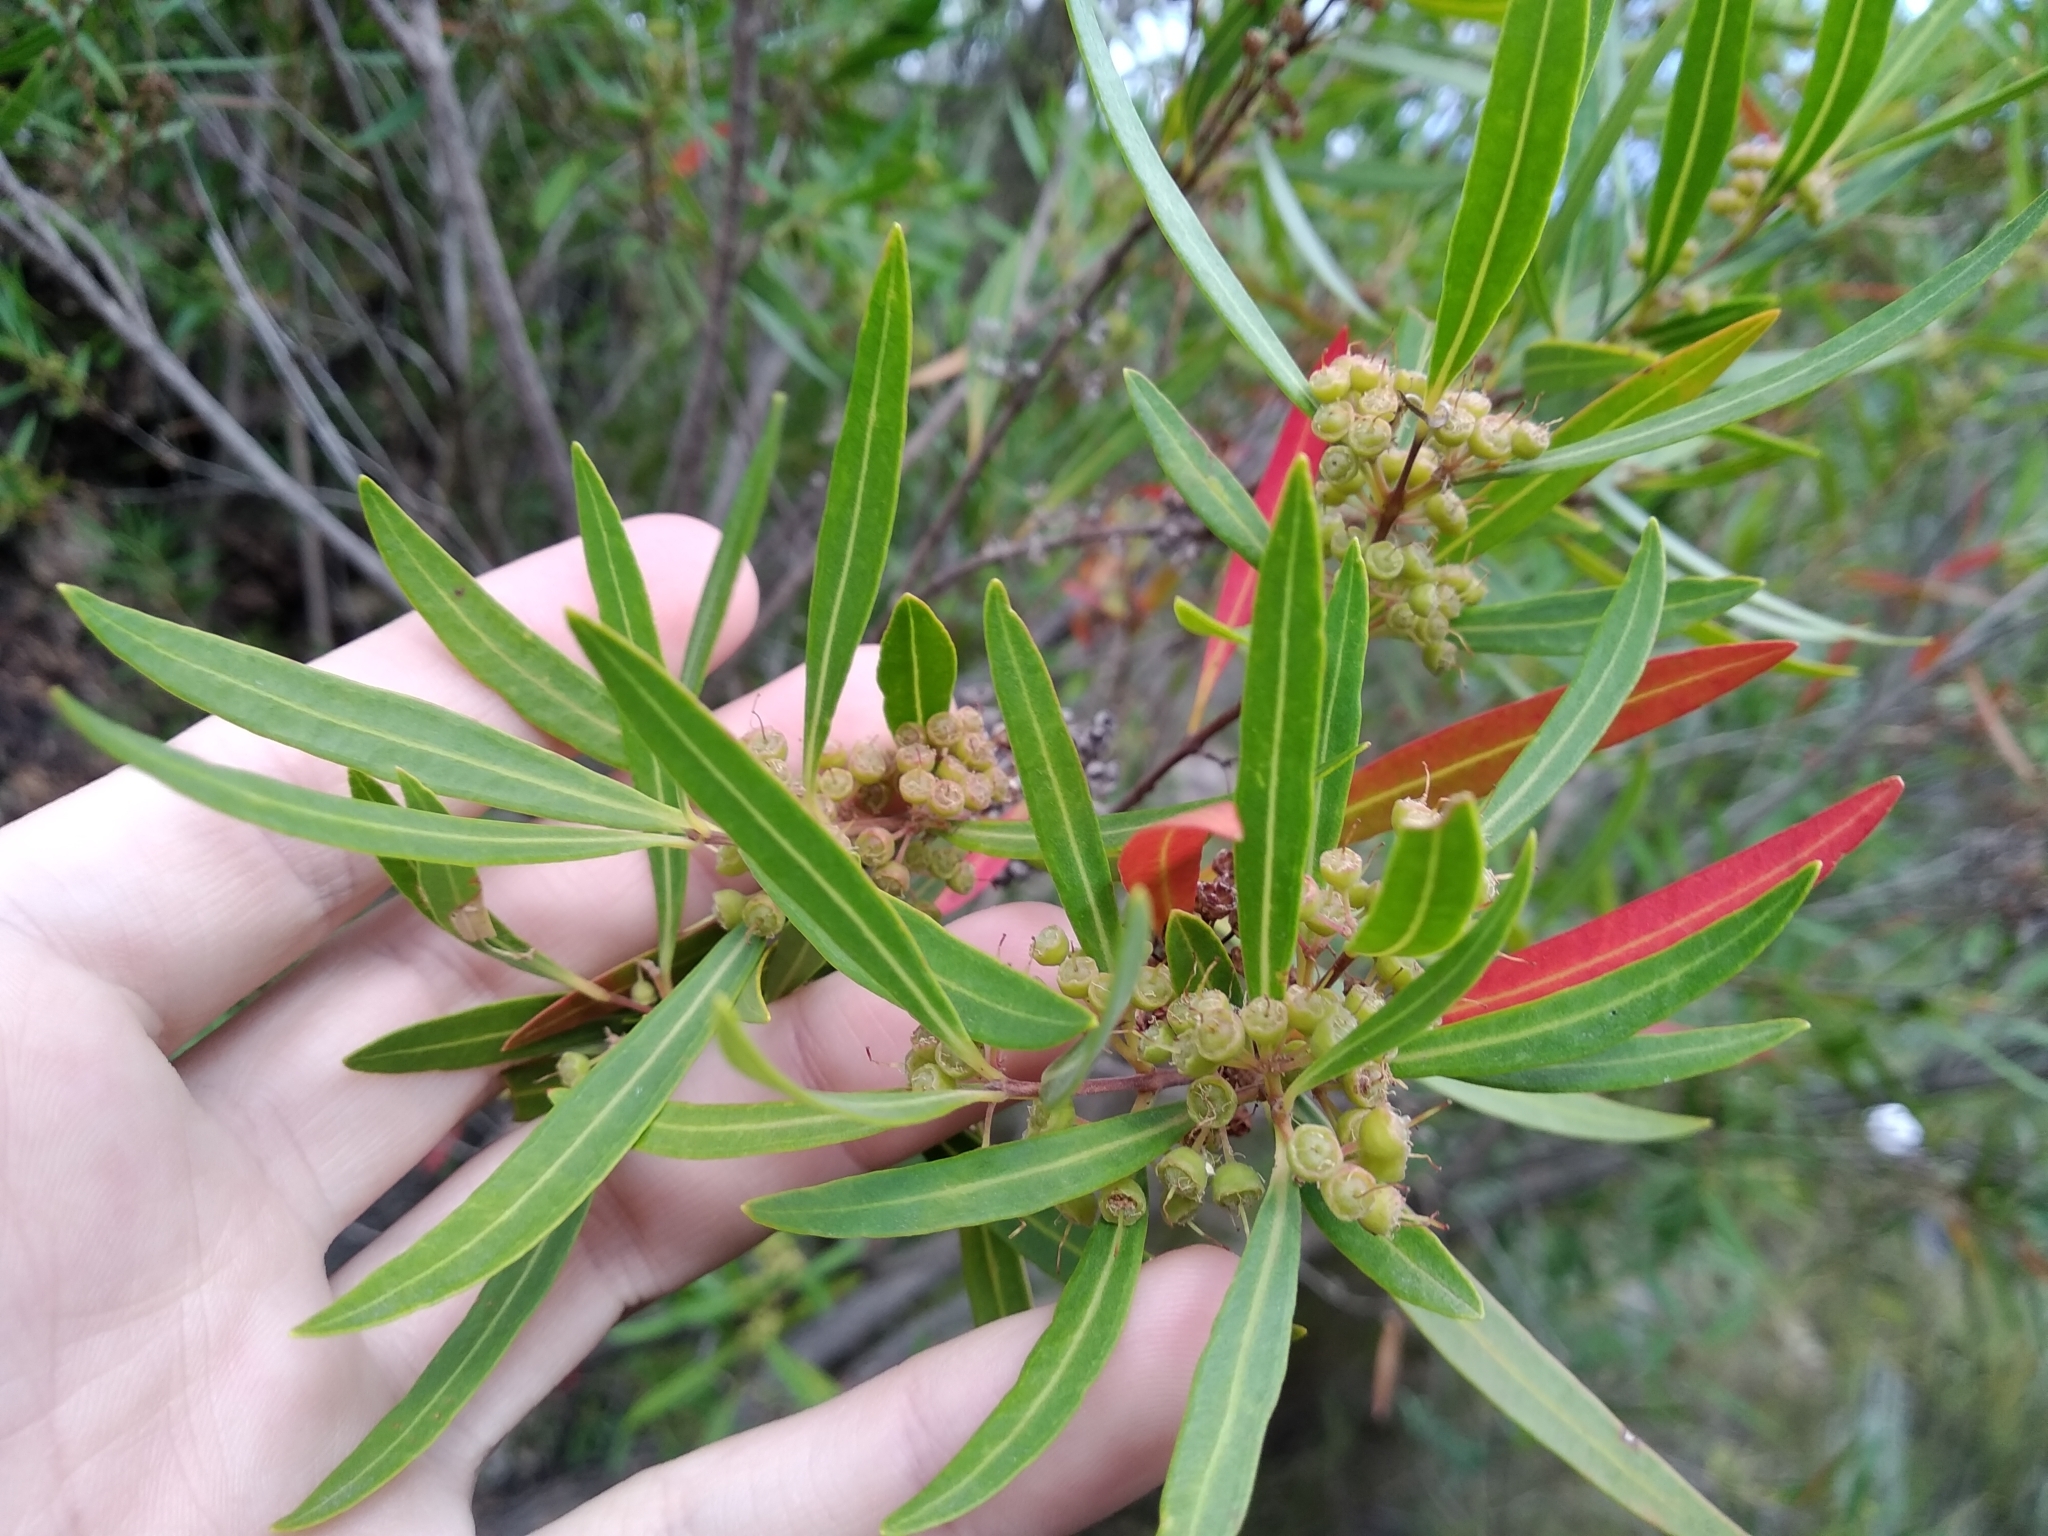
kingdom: Plantae
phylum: Tracheophyta
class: Magnoliopsida
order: Myrtales
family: Myrtaceae
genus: Callistemon
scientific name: Callistemon lanceolatus
